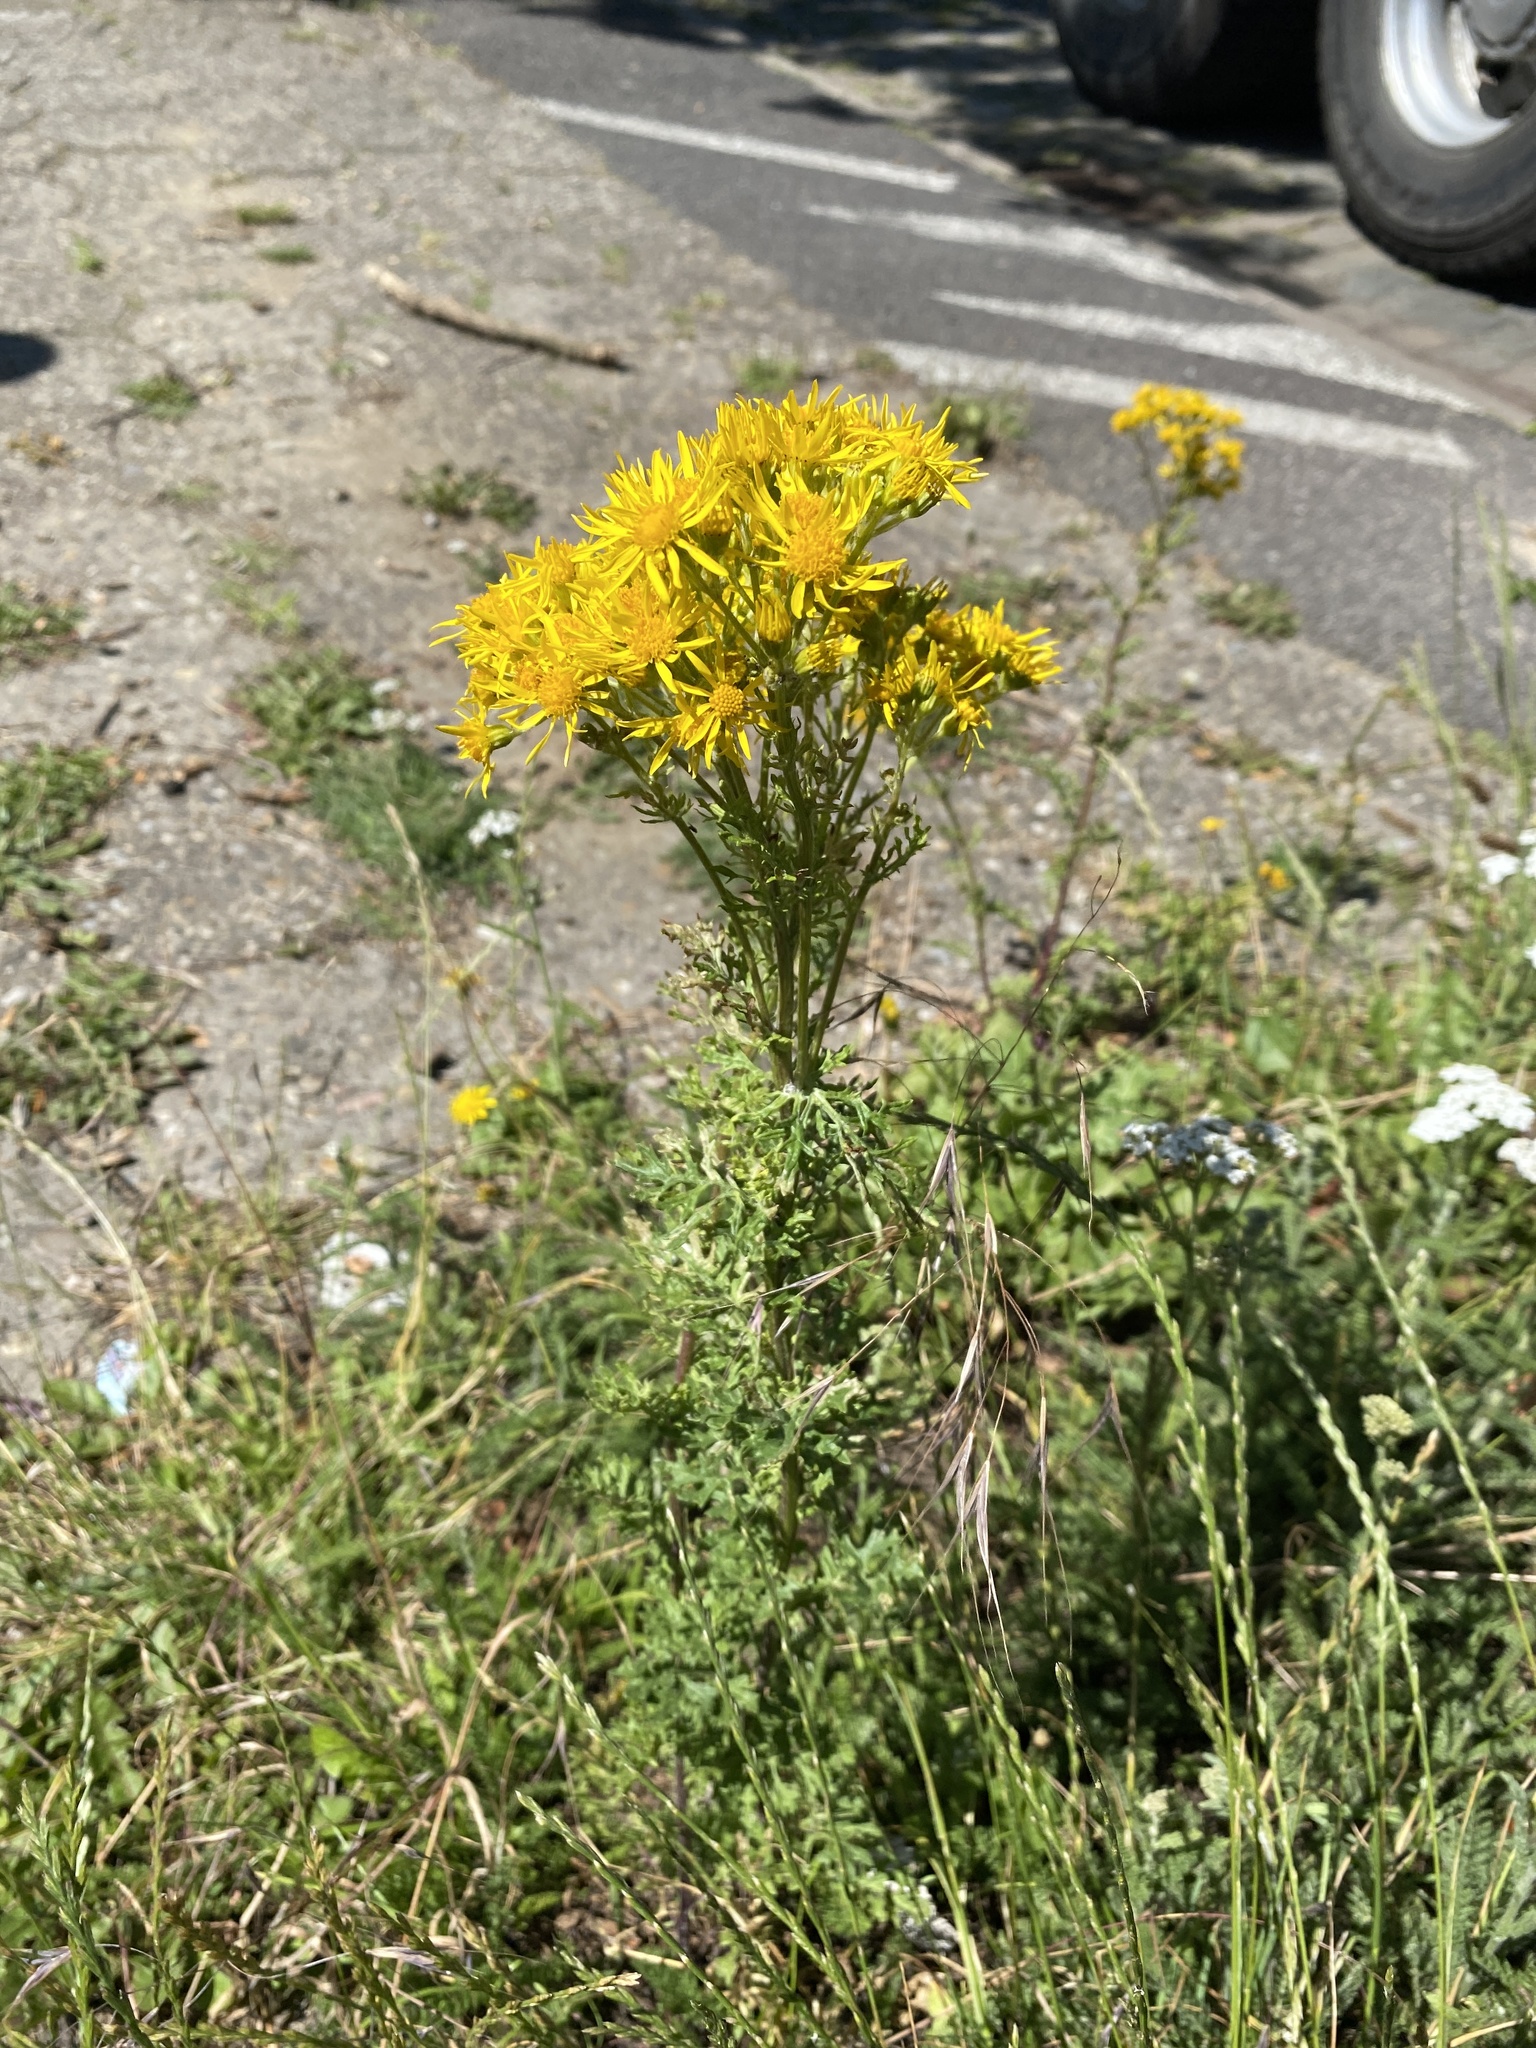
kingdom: Plantae
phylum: Tracheophyta
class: Magnoliopsida
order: Asterales
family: Asteraceae
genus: Jacobaea
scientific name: Jacobaea vulgaris
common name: Stinking willie
